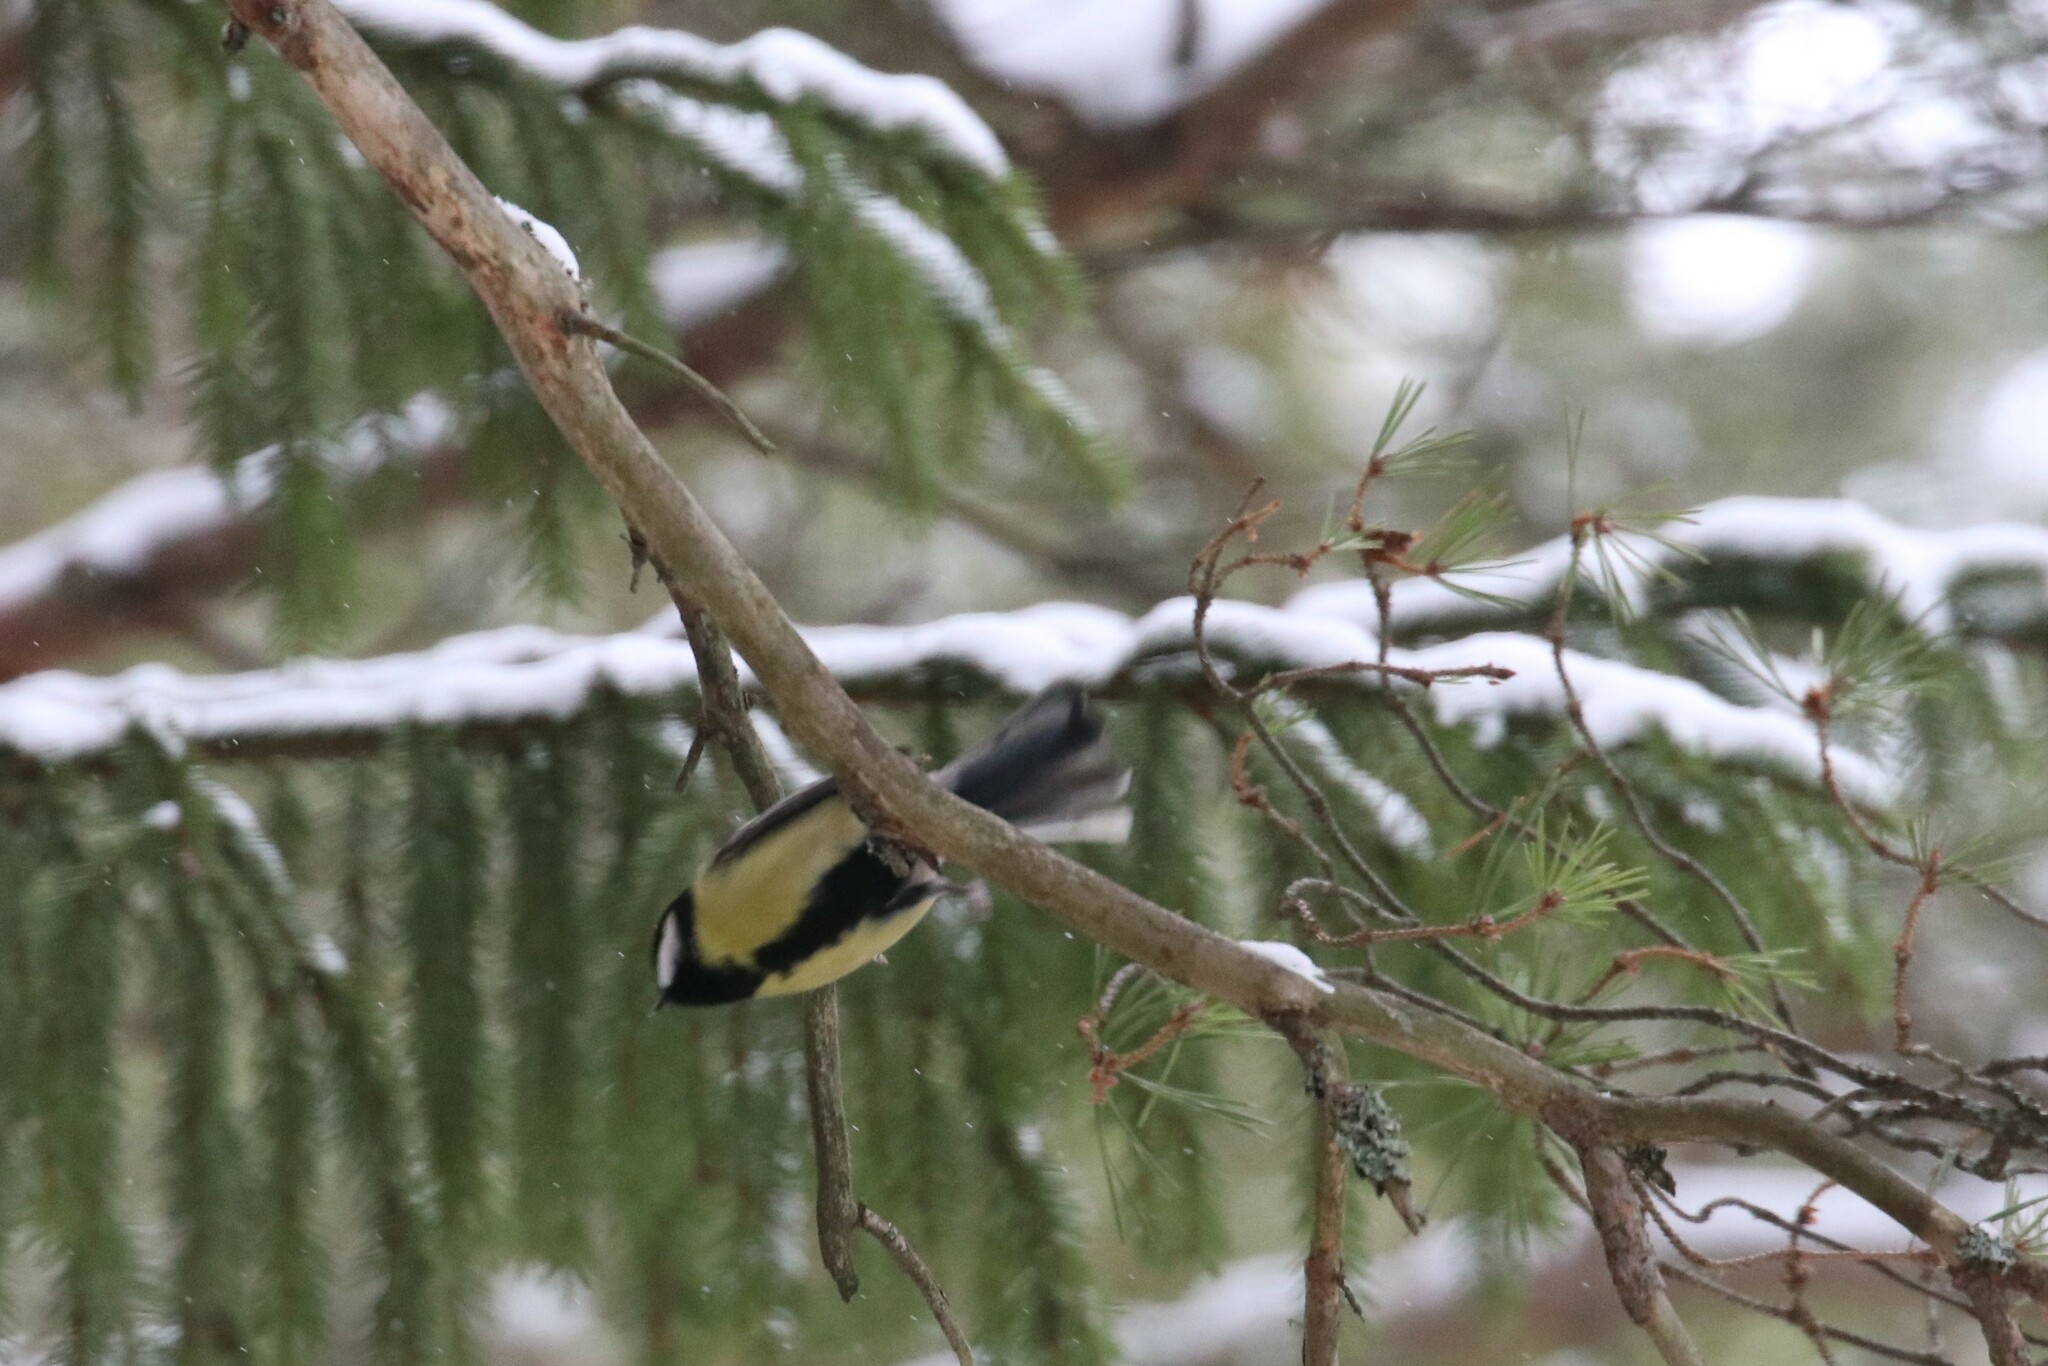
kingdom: Animalia
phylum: Chordata
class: Aves
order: Passeriformes
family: Paridae
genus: Parus
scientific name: Parus major
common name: Great tit
